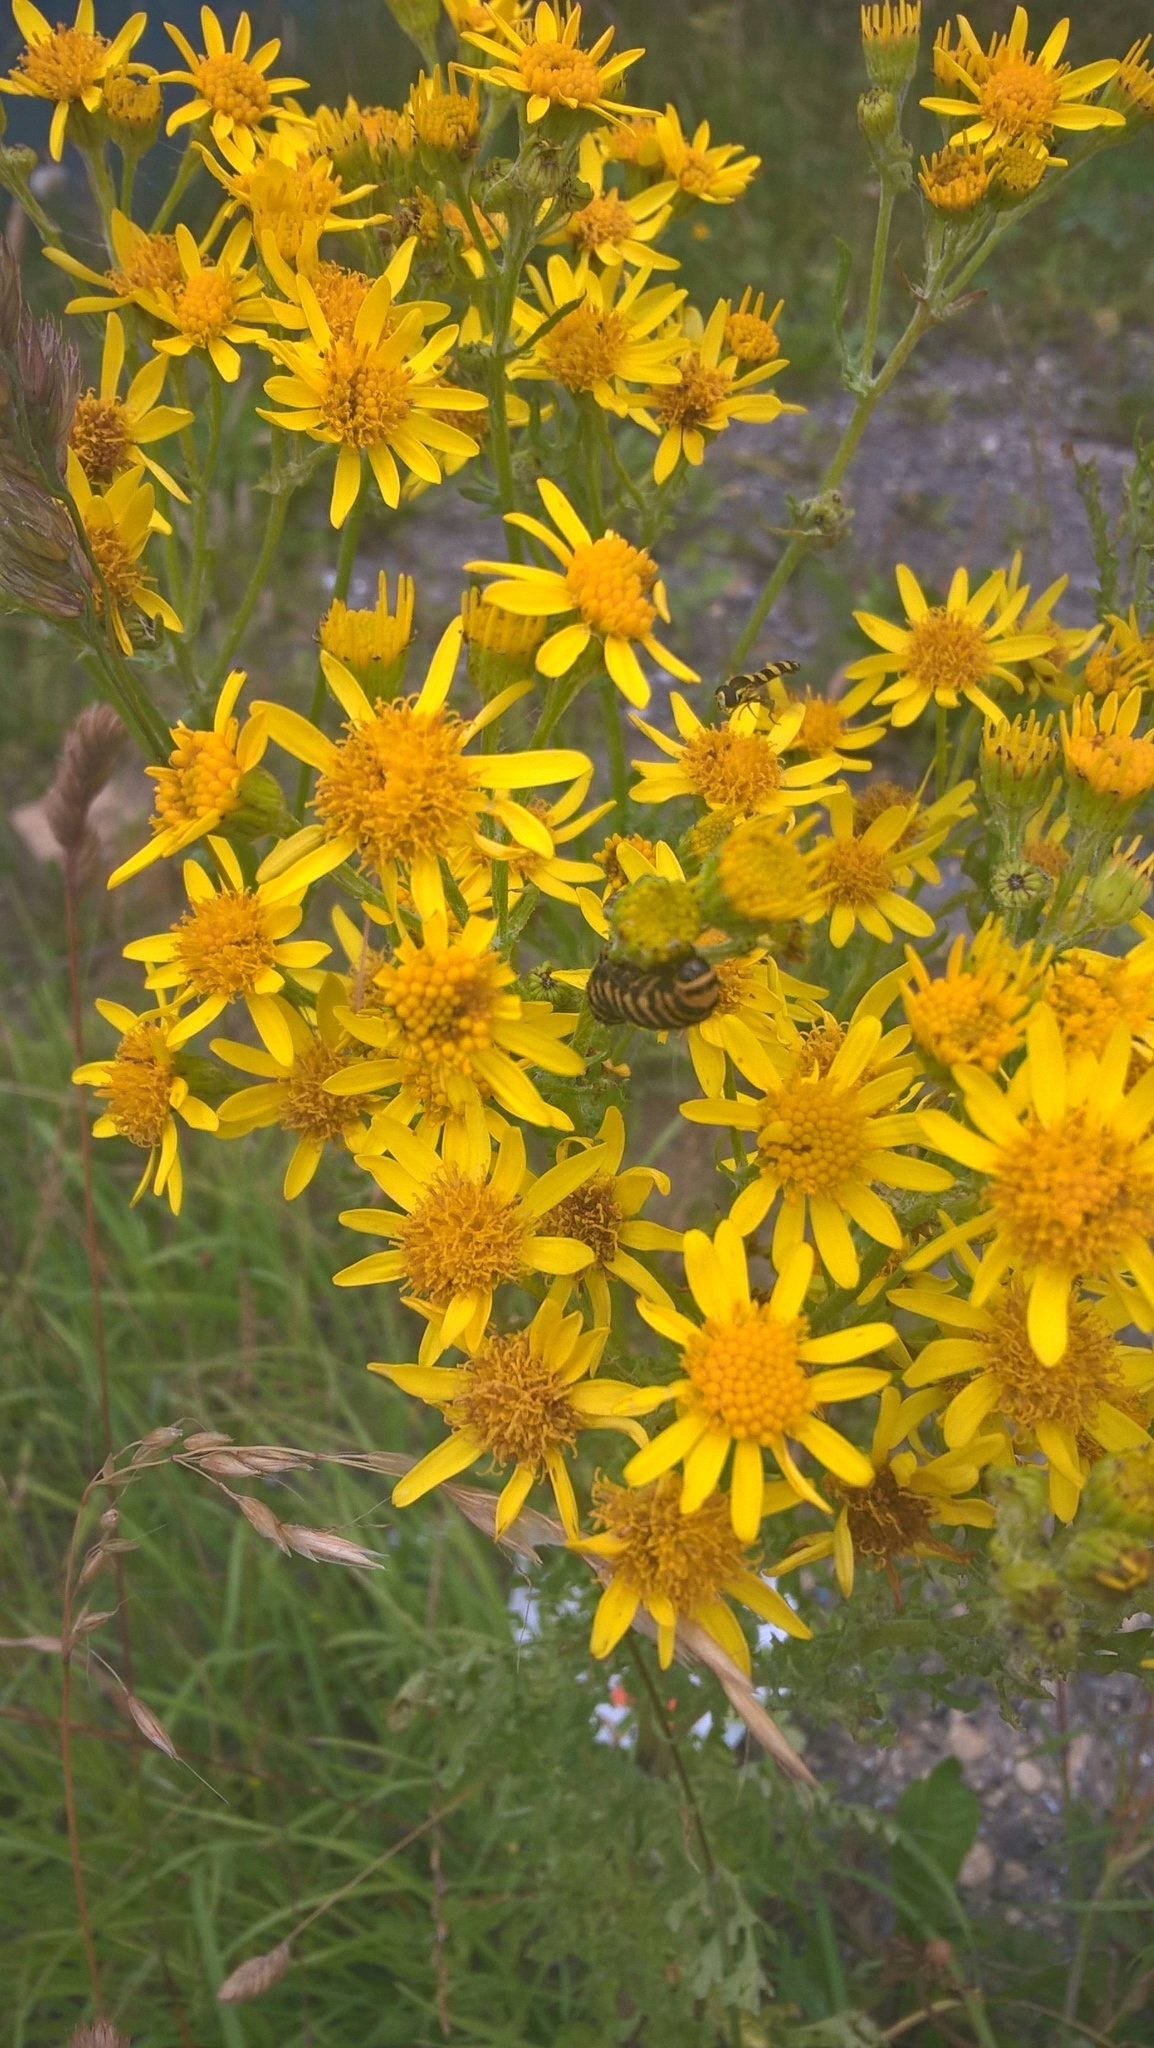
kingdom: Plantae
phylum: Tracheophyta
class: Magnoliopsida
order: Asterales
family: Asteraceae
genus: Jacobaea
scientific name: Jacobaea vulgaris
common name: Stinking willie
